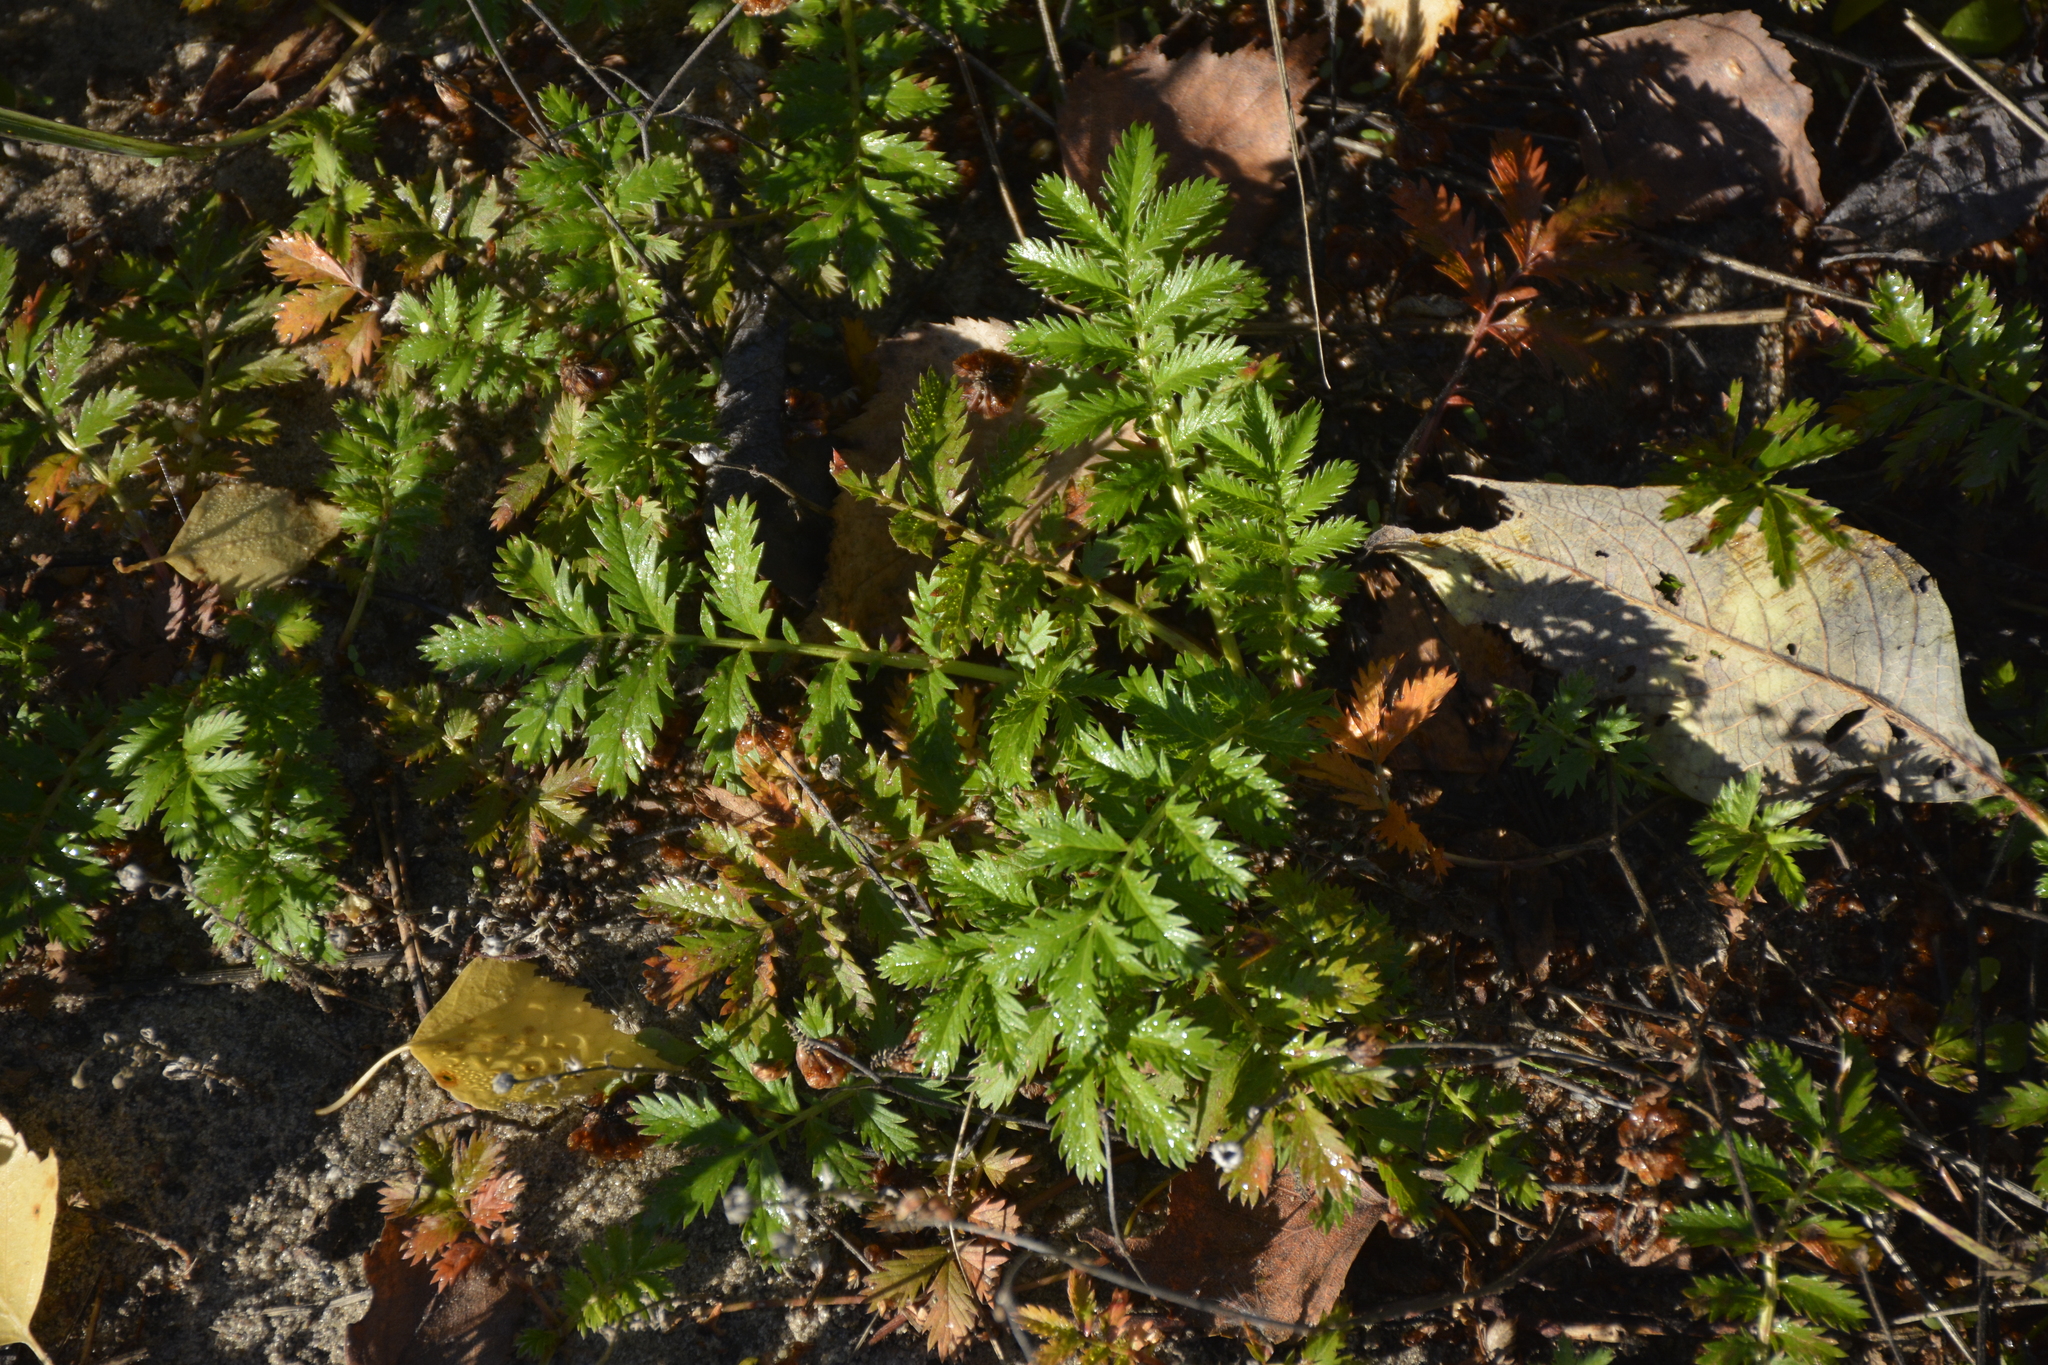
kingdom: Plantae
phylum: Tracheophyta
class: Magnoliopsida
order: Rosales
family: Rosaceae
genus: Argentina
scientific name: Argentina anserina
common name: Common silverweed
